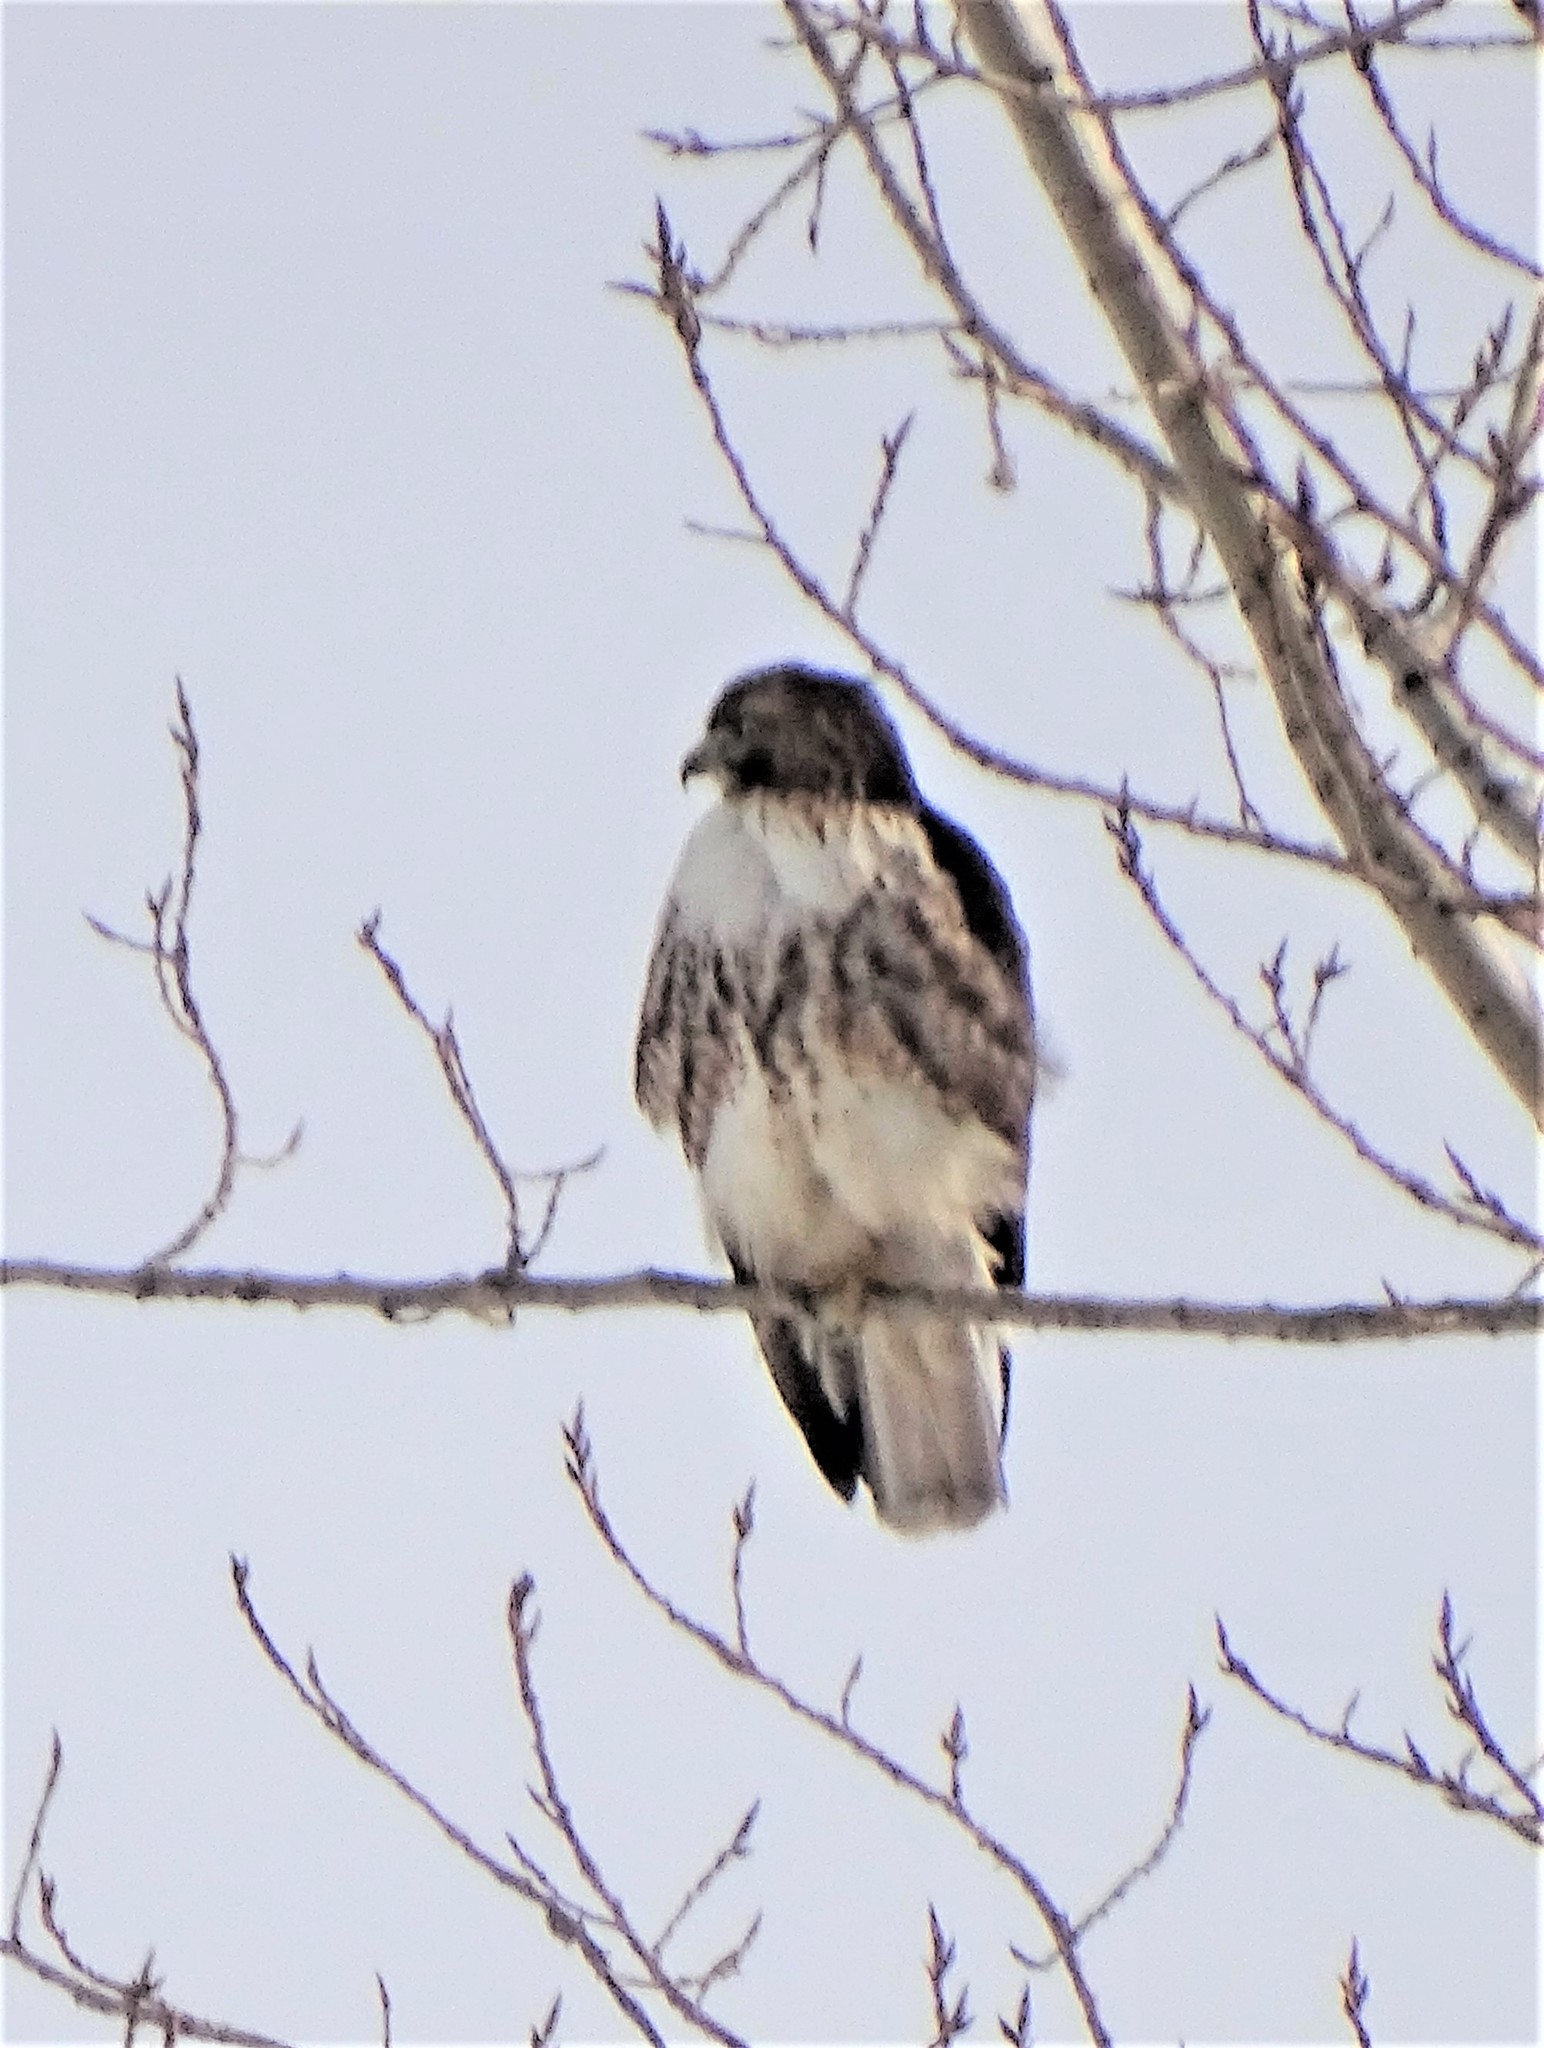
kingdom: Animalia
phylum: Chordata
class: Aves
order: Accipitriformes
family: Accipitridae
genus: Buteo
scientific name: Buteo jamaicensis
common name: Red-tailed hawk
